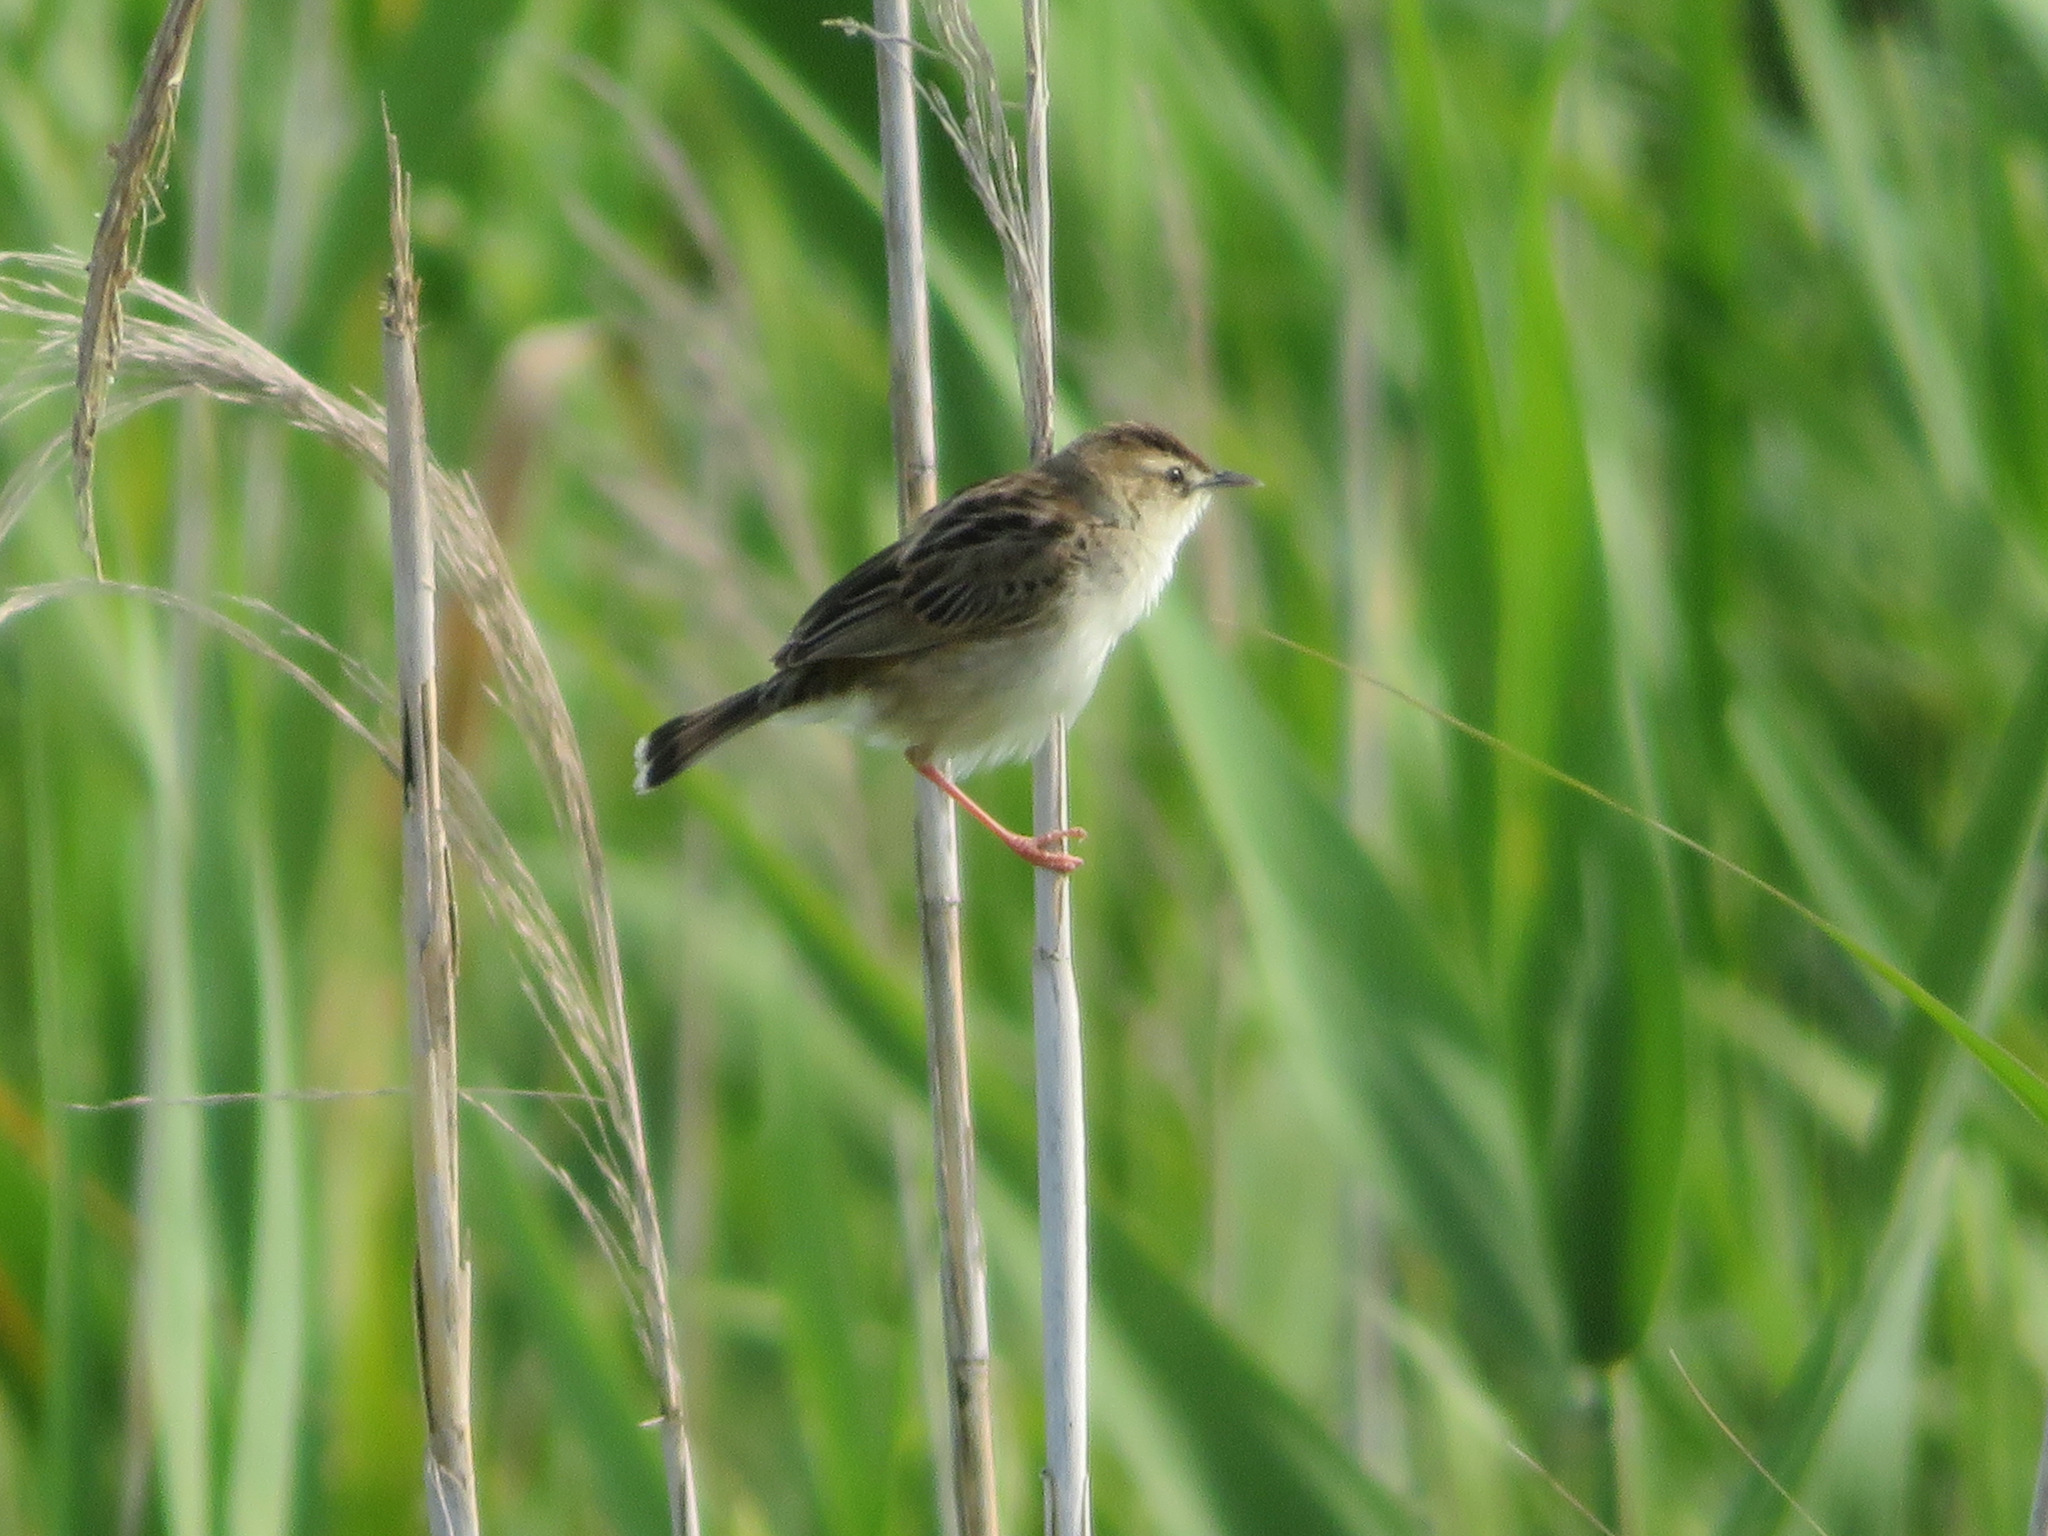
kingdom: Animalia
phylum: Chordata
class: Aves
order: Passeriformes
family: Cisticolidae
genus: Cisticola
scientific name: Cisticola juncidis
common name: Zitting cisticola
